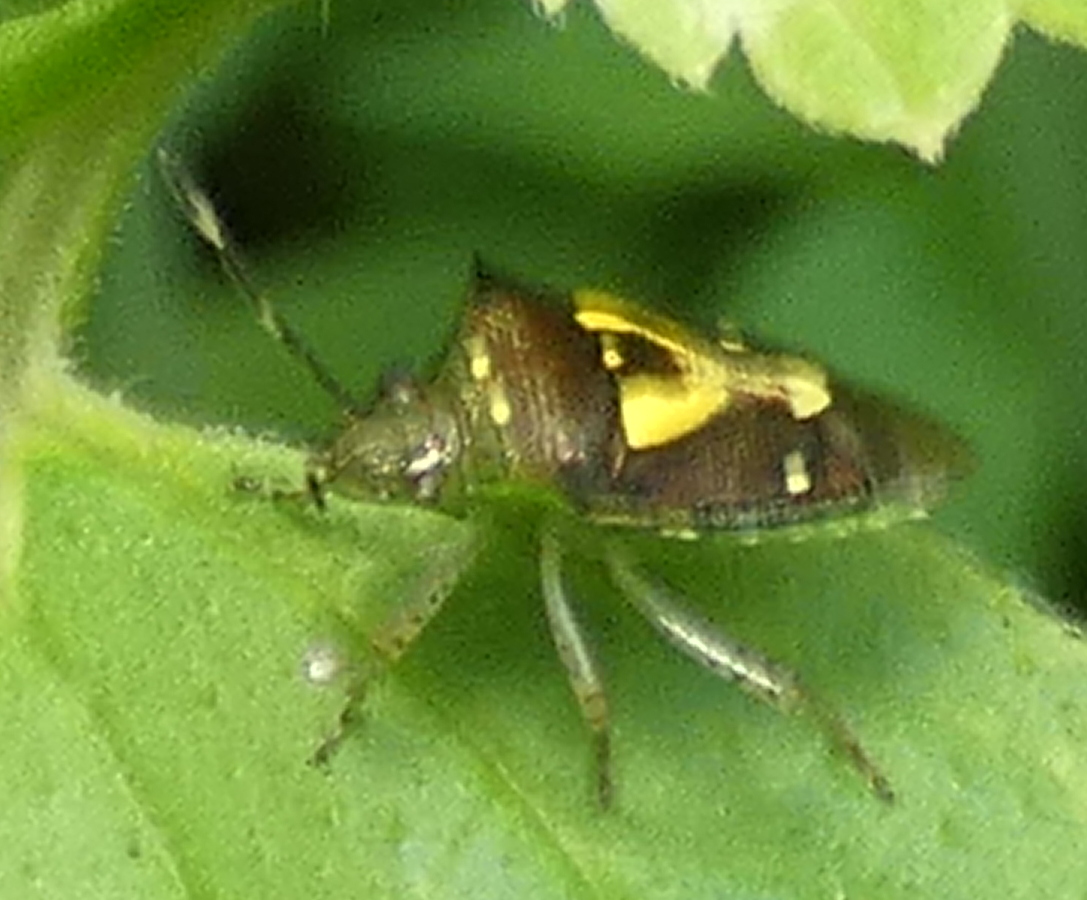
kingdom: Animalia
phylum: Arthropoda
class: Insecta
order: Hemiptera
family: Pentatomidae
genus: Mormidea
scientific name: Mormidea ypsilon
